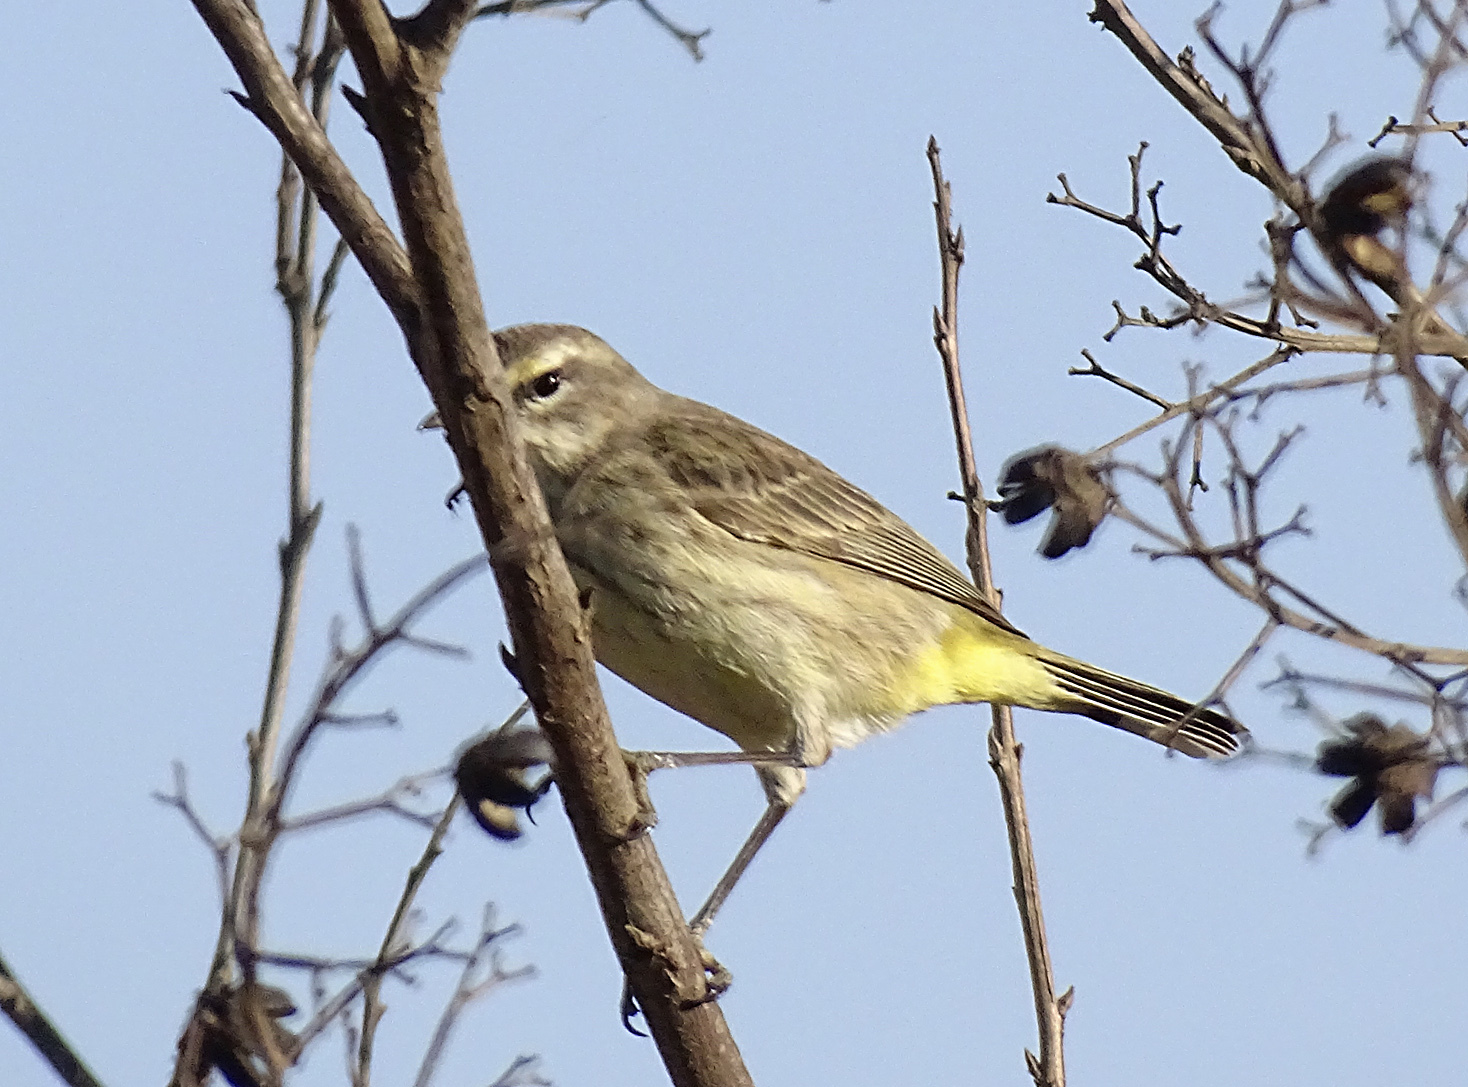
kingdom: Animalia
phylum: Chordata
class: Aves
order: Passeriformes
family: Parulidae
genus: Setophaga
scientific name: Setophaga palmarum
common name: Palm warbler
